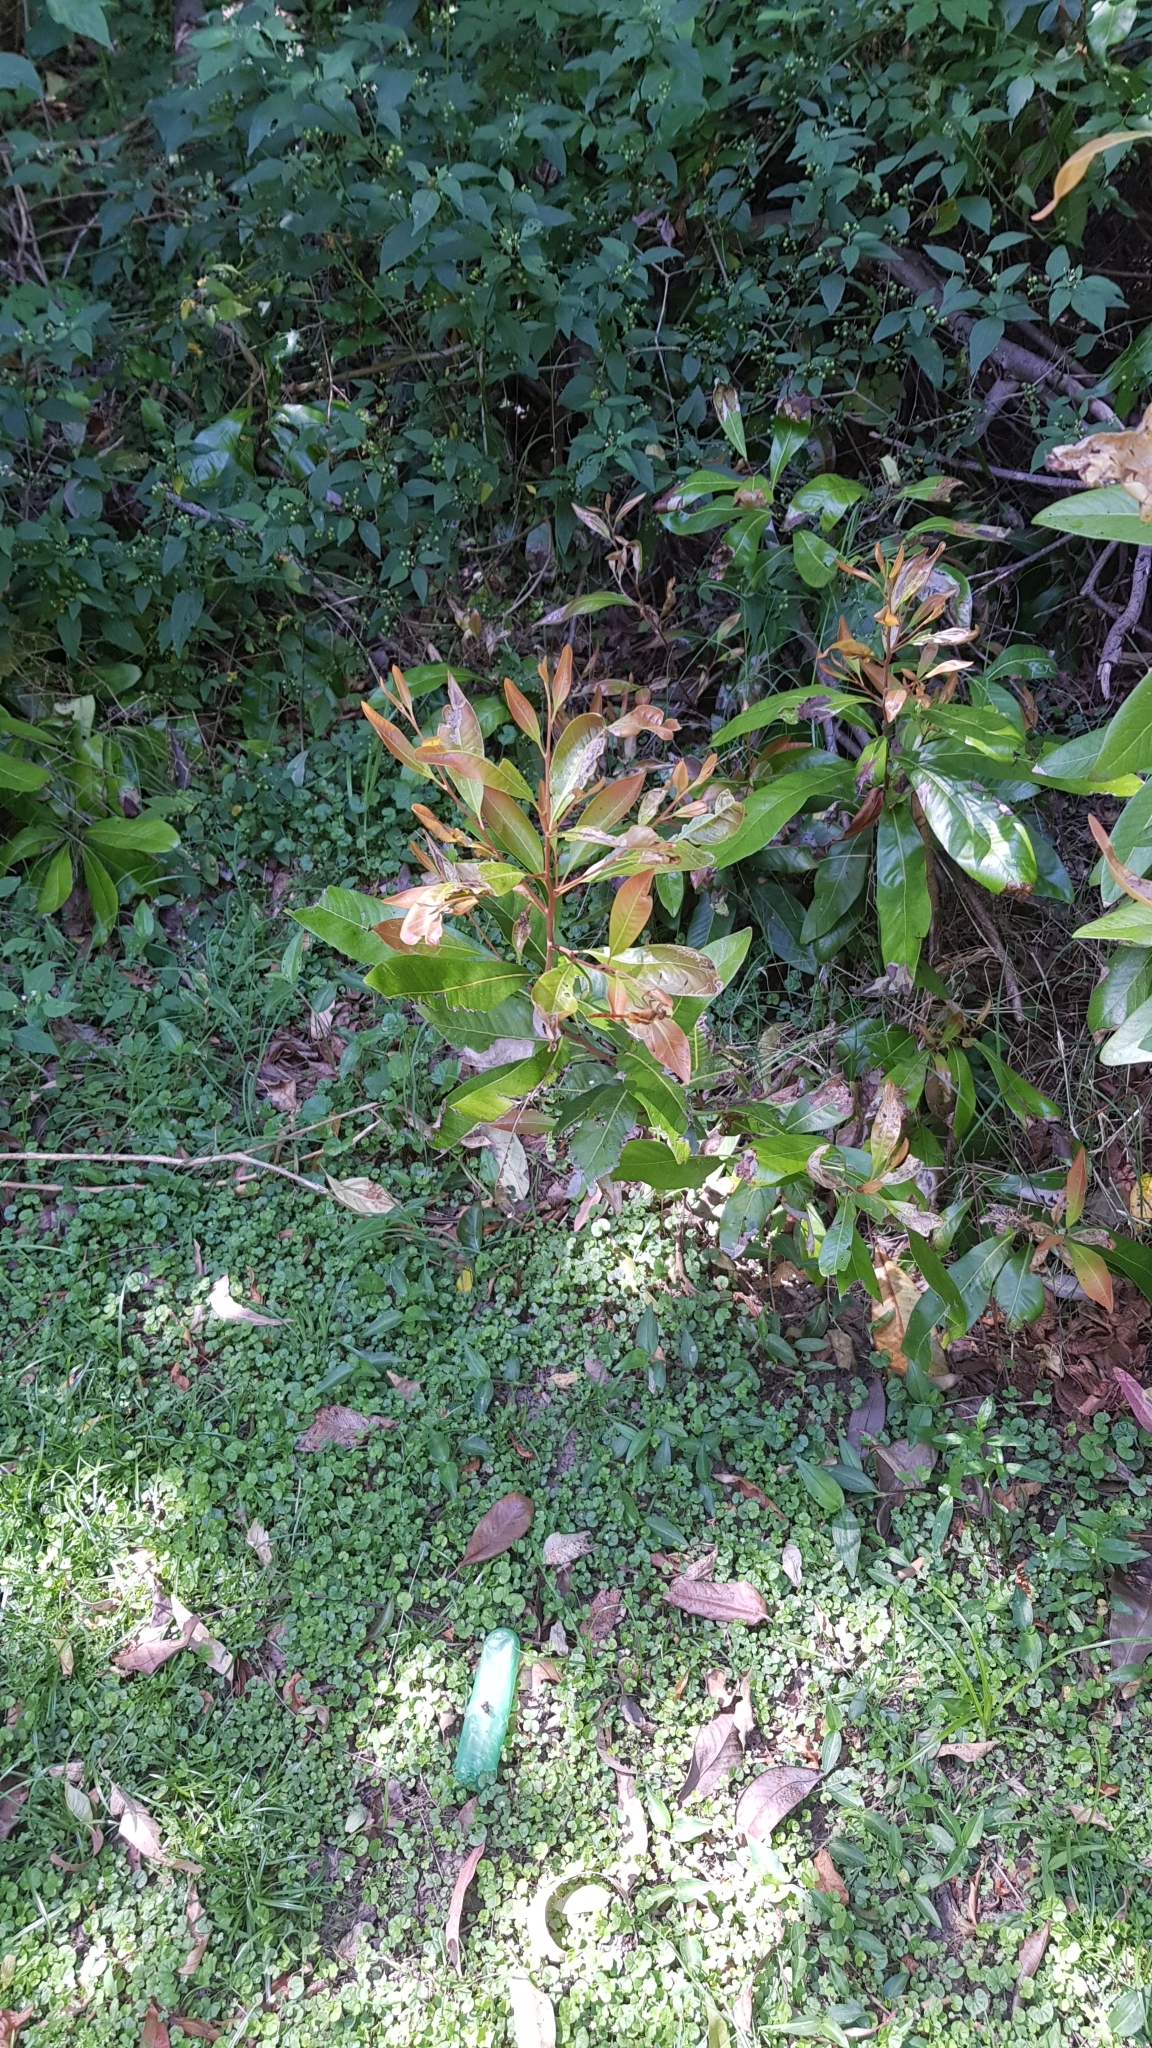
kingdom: Animalia
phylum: Arthropoda
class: Insecta
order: Odonata
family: Libellulidae
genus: Orthetrum
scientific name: Orthetrum villosovittatum
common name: Firery skimmer
